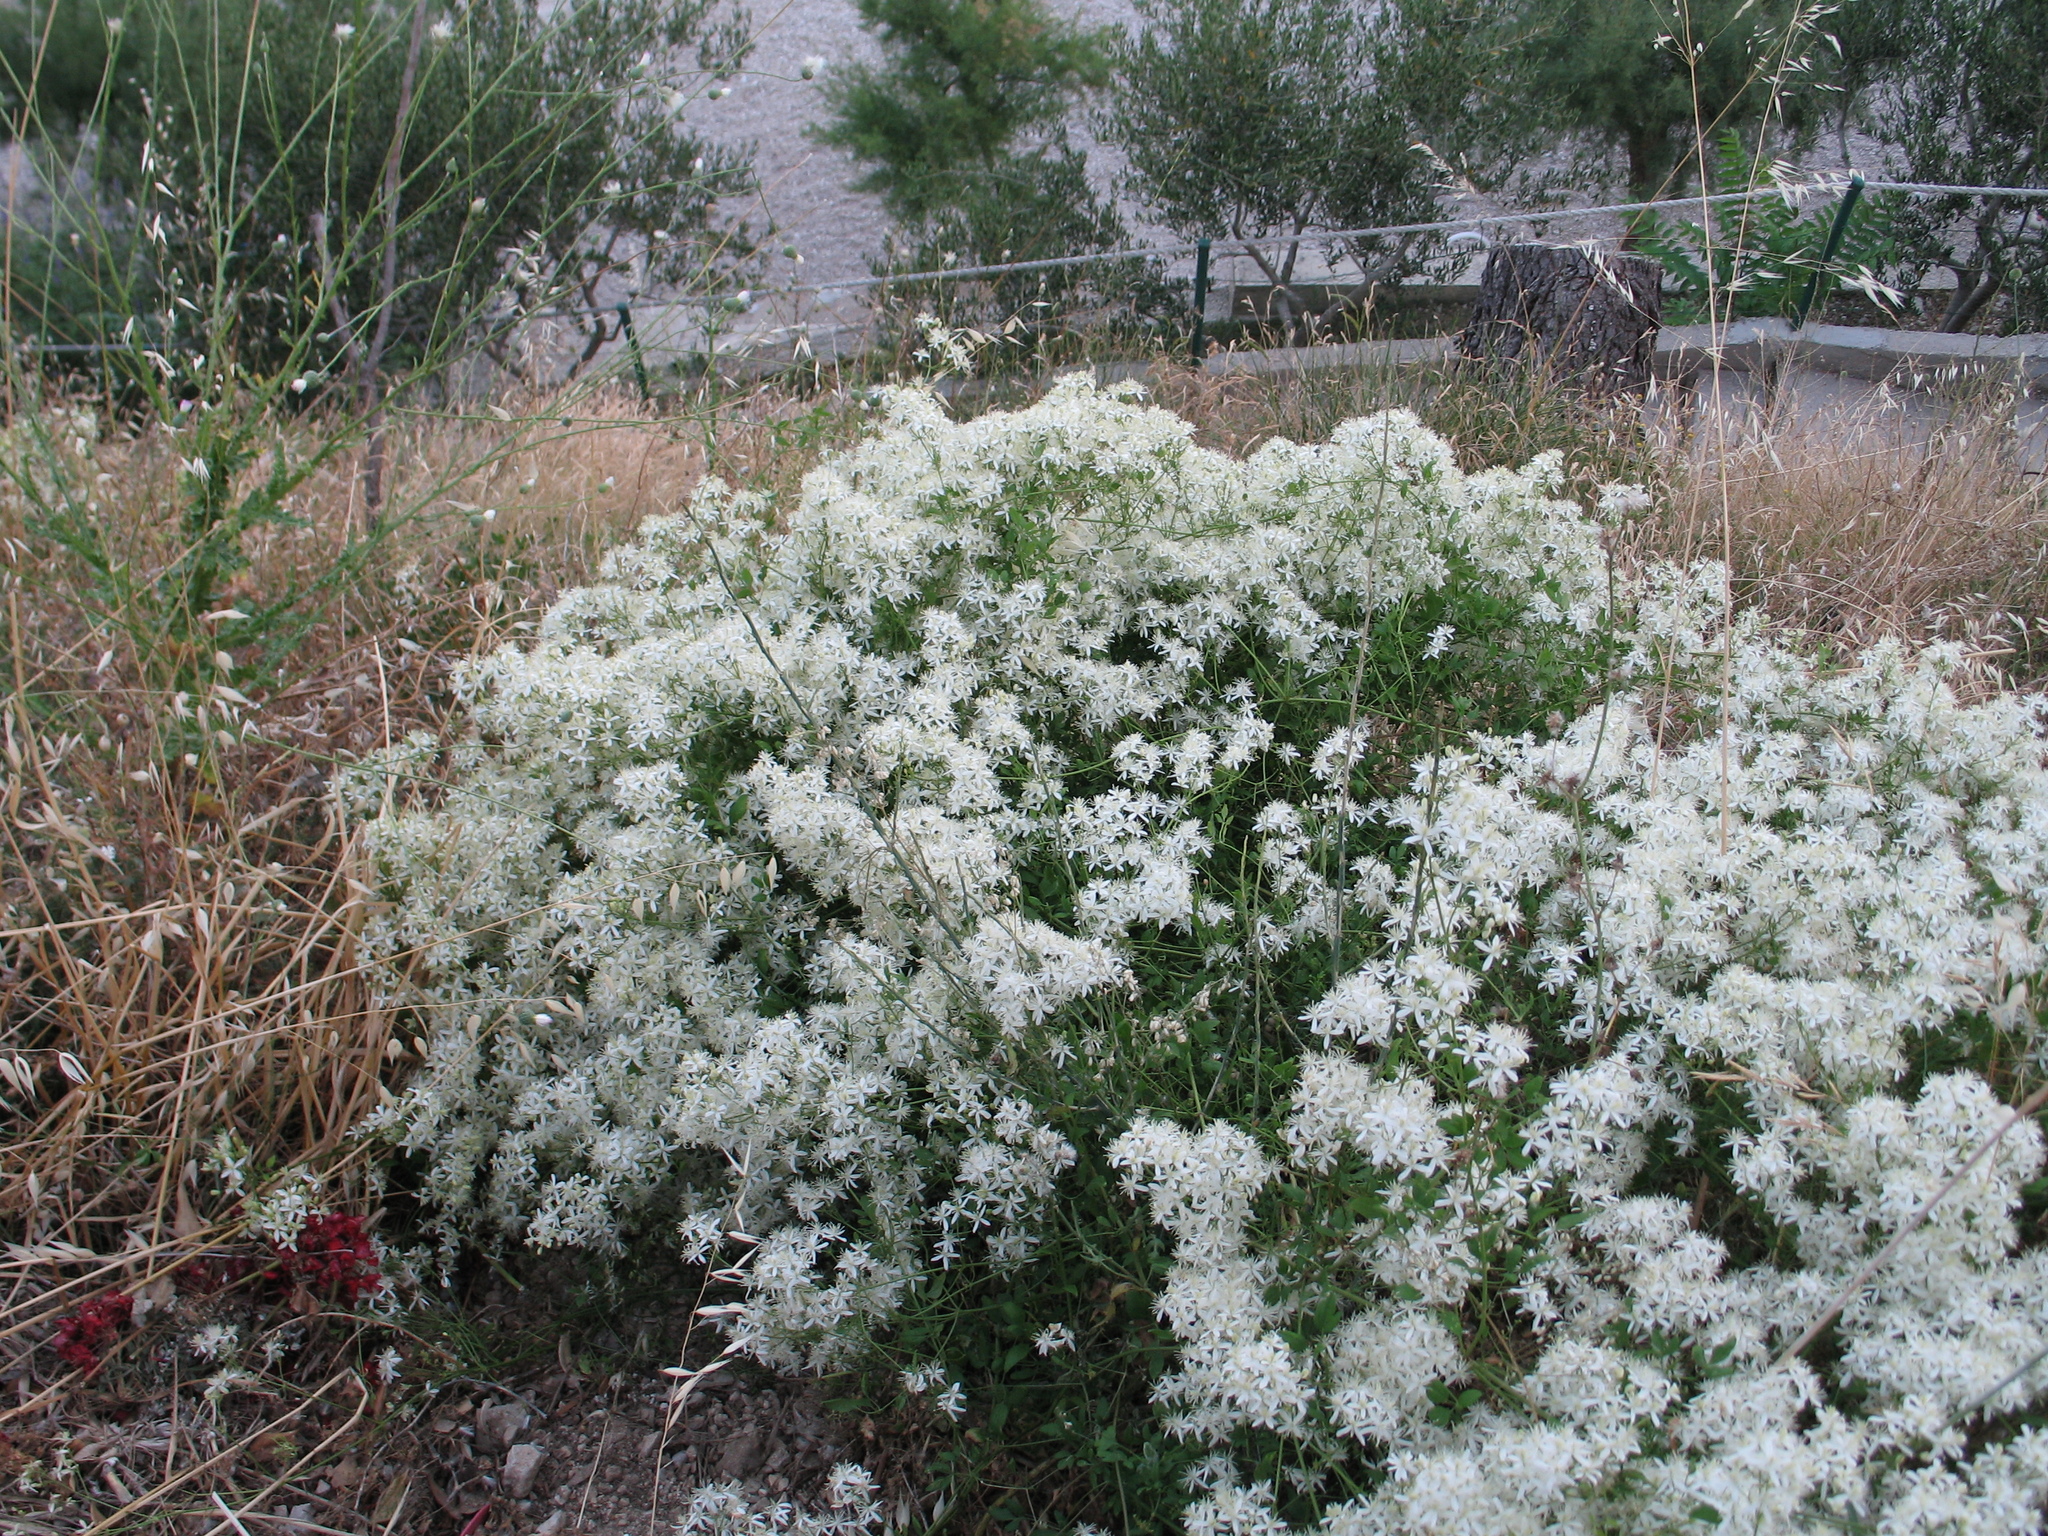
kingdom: Plantae
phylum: Tracheophyta
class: Magnoliopsida
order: Ranunculales
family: Ranunculaceae
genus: Clematis
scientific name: Clematis flammula
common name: Virgin's-bower
